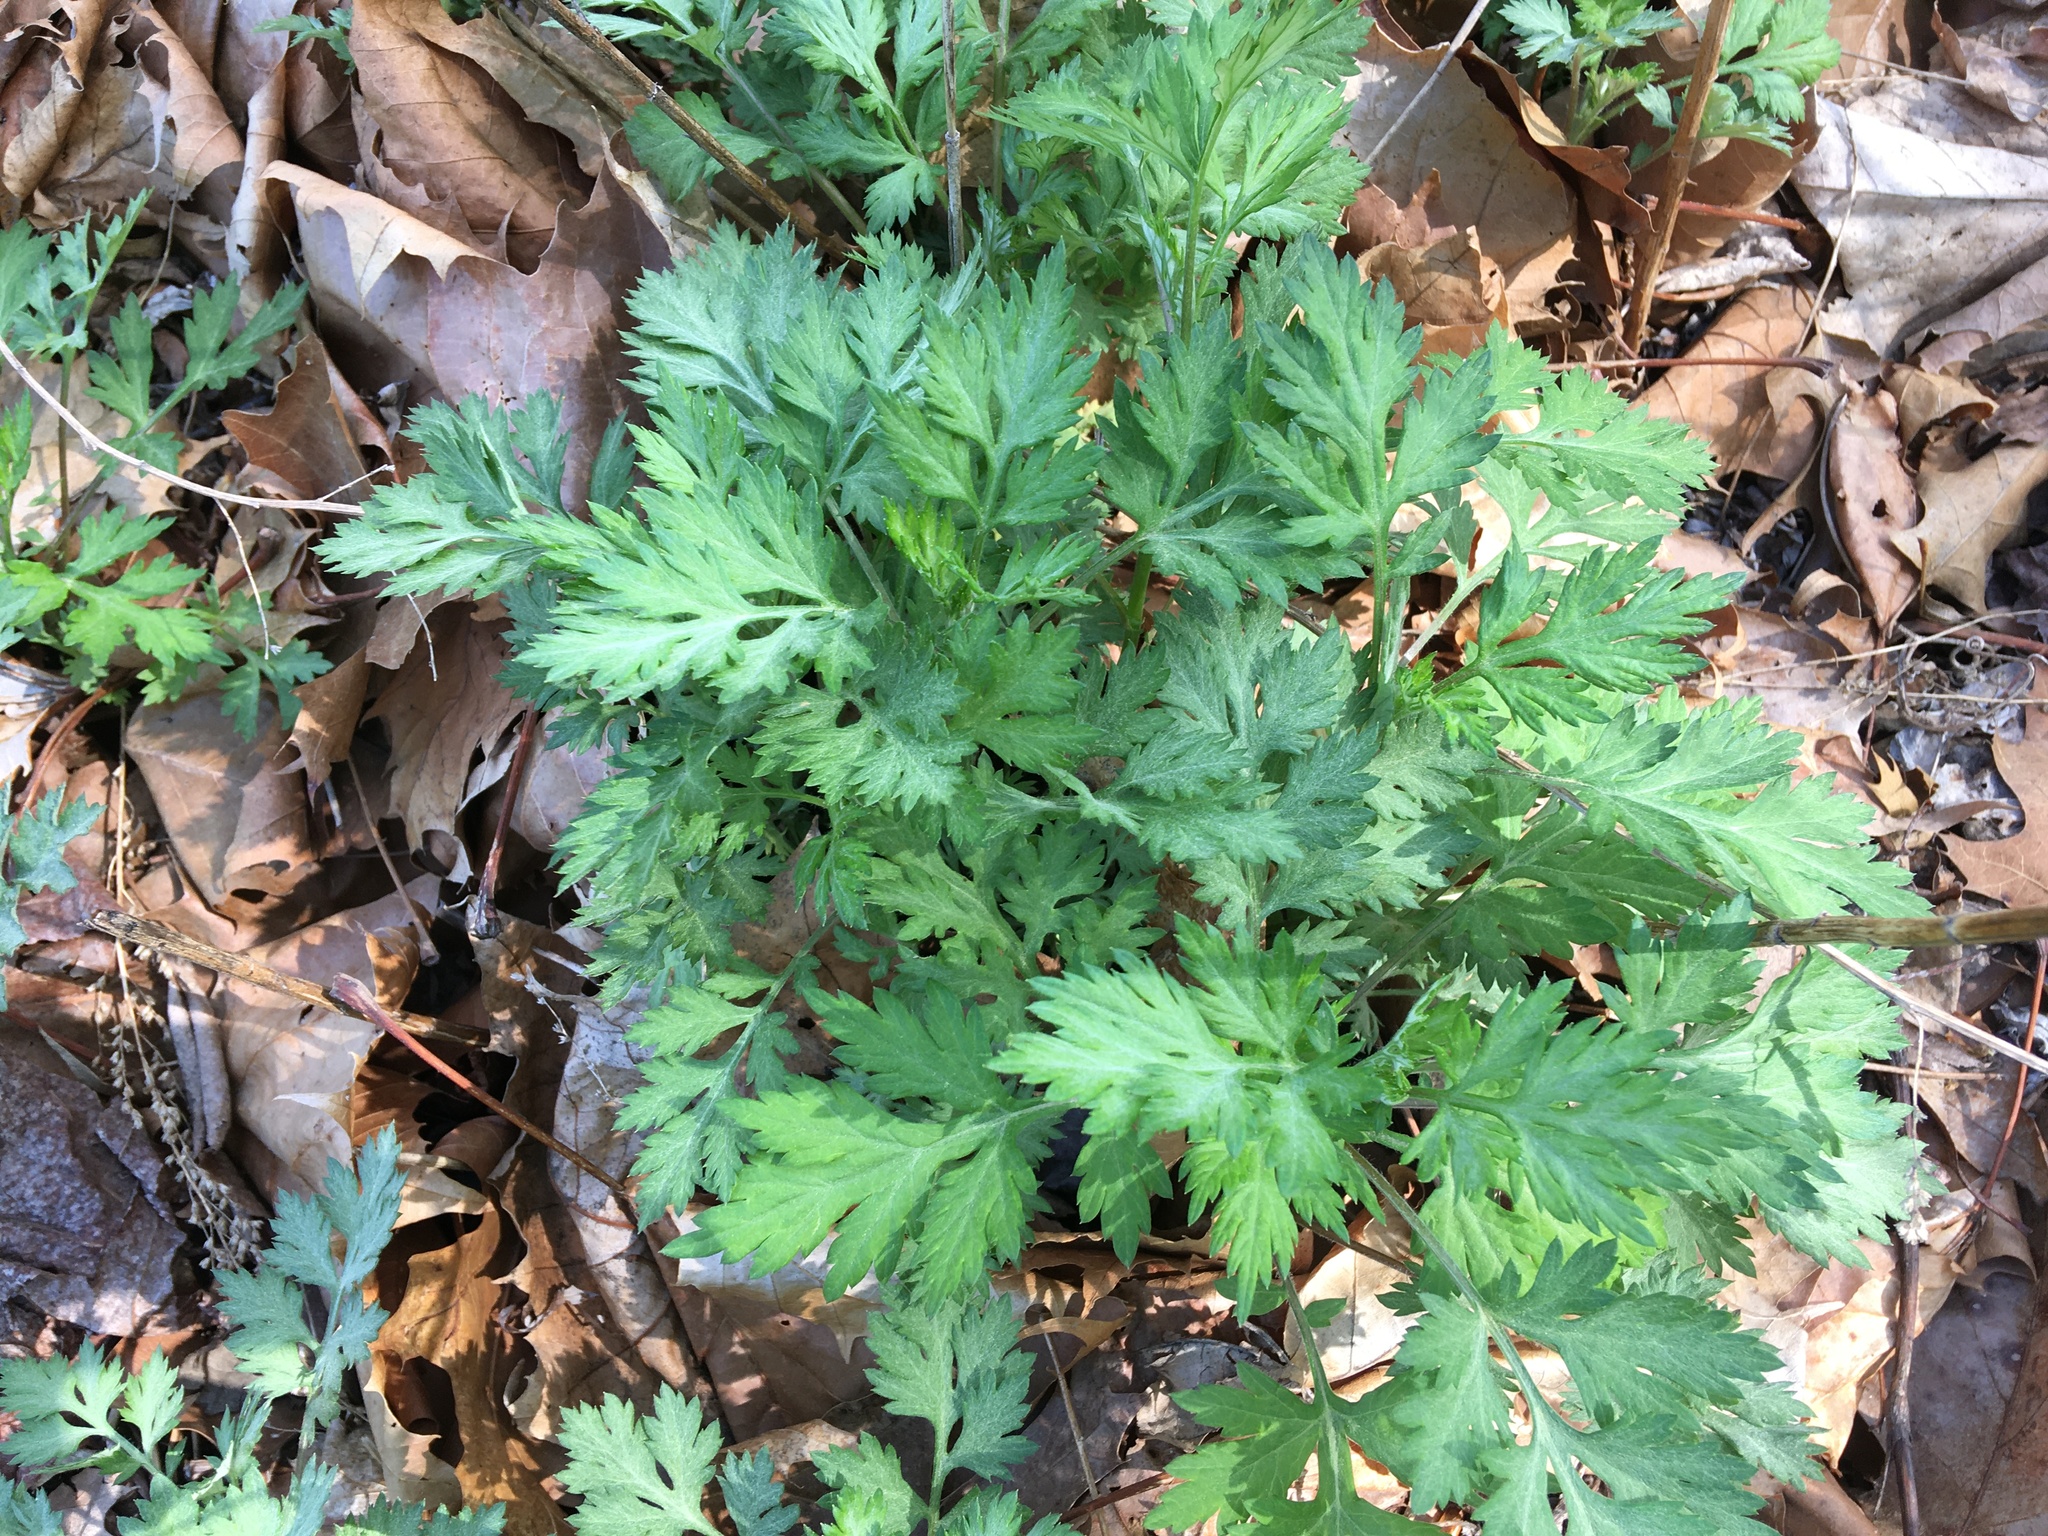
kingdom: Plantae
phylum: Tracheophyta
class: Magnoliopsida
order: Asterales
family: Asteraceae
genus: Artemisia
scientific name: Artemisia vulgaris
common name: Mugwort
